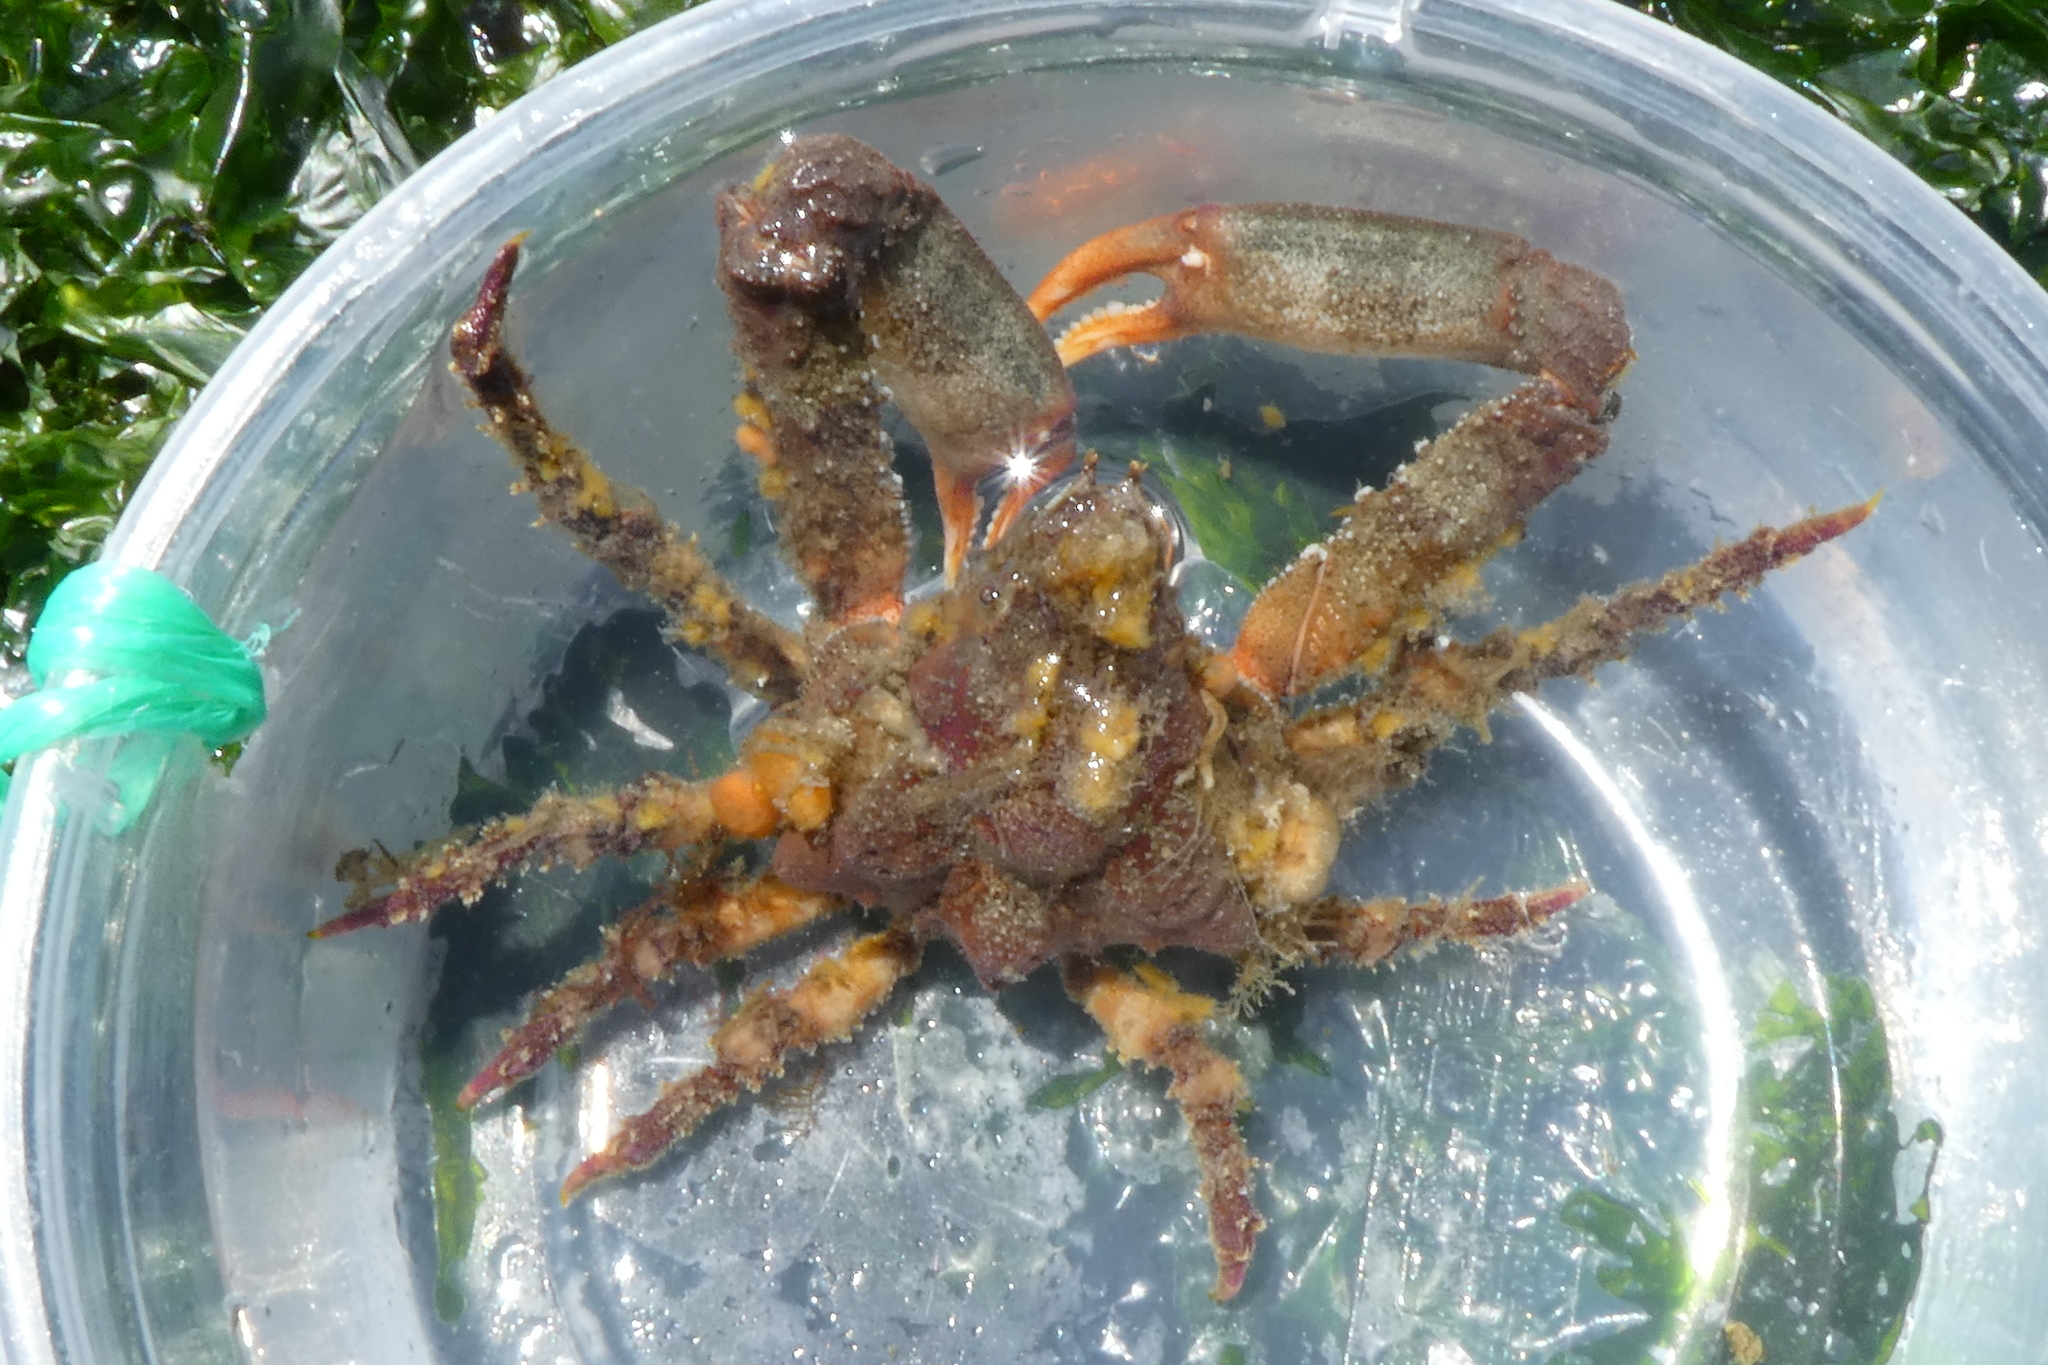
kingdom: Animalia
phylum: Arthropoda
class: Malacostraca
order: Decapoda
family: Epialtidae
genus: Scyra
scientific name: Scyra acutifrons
